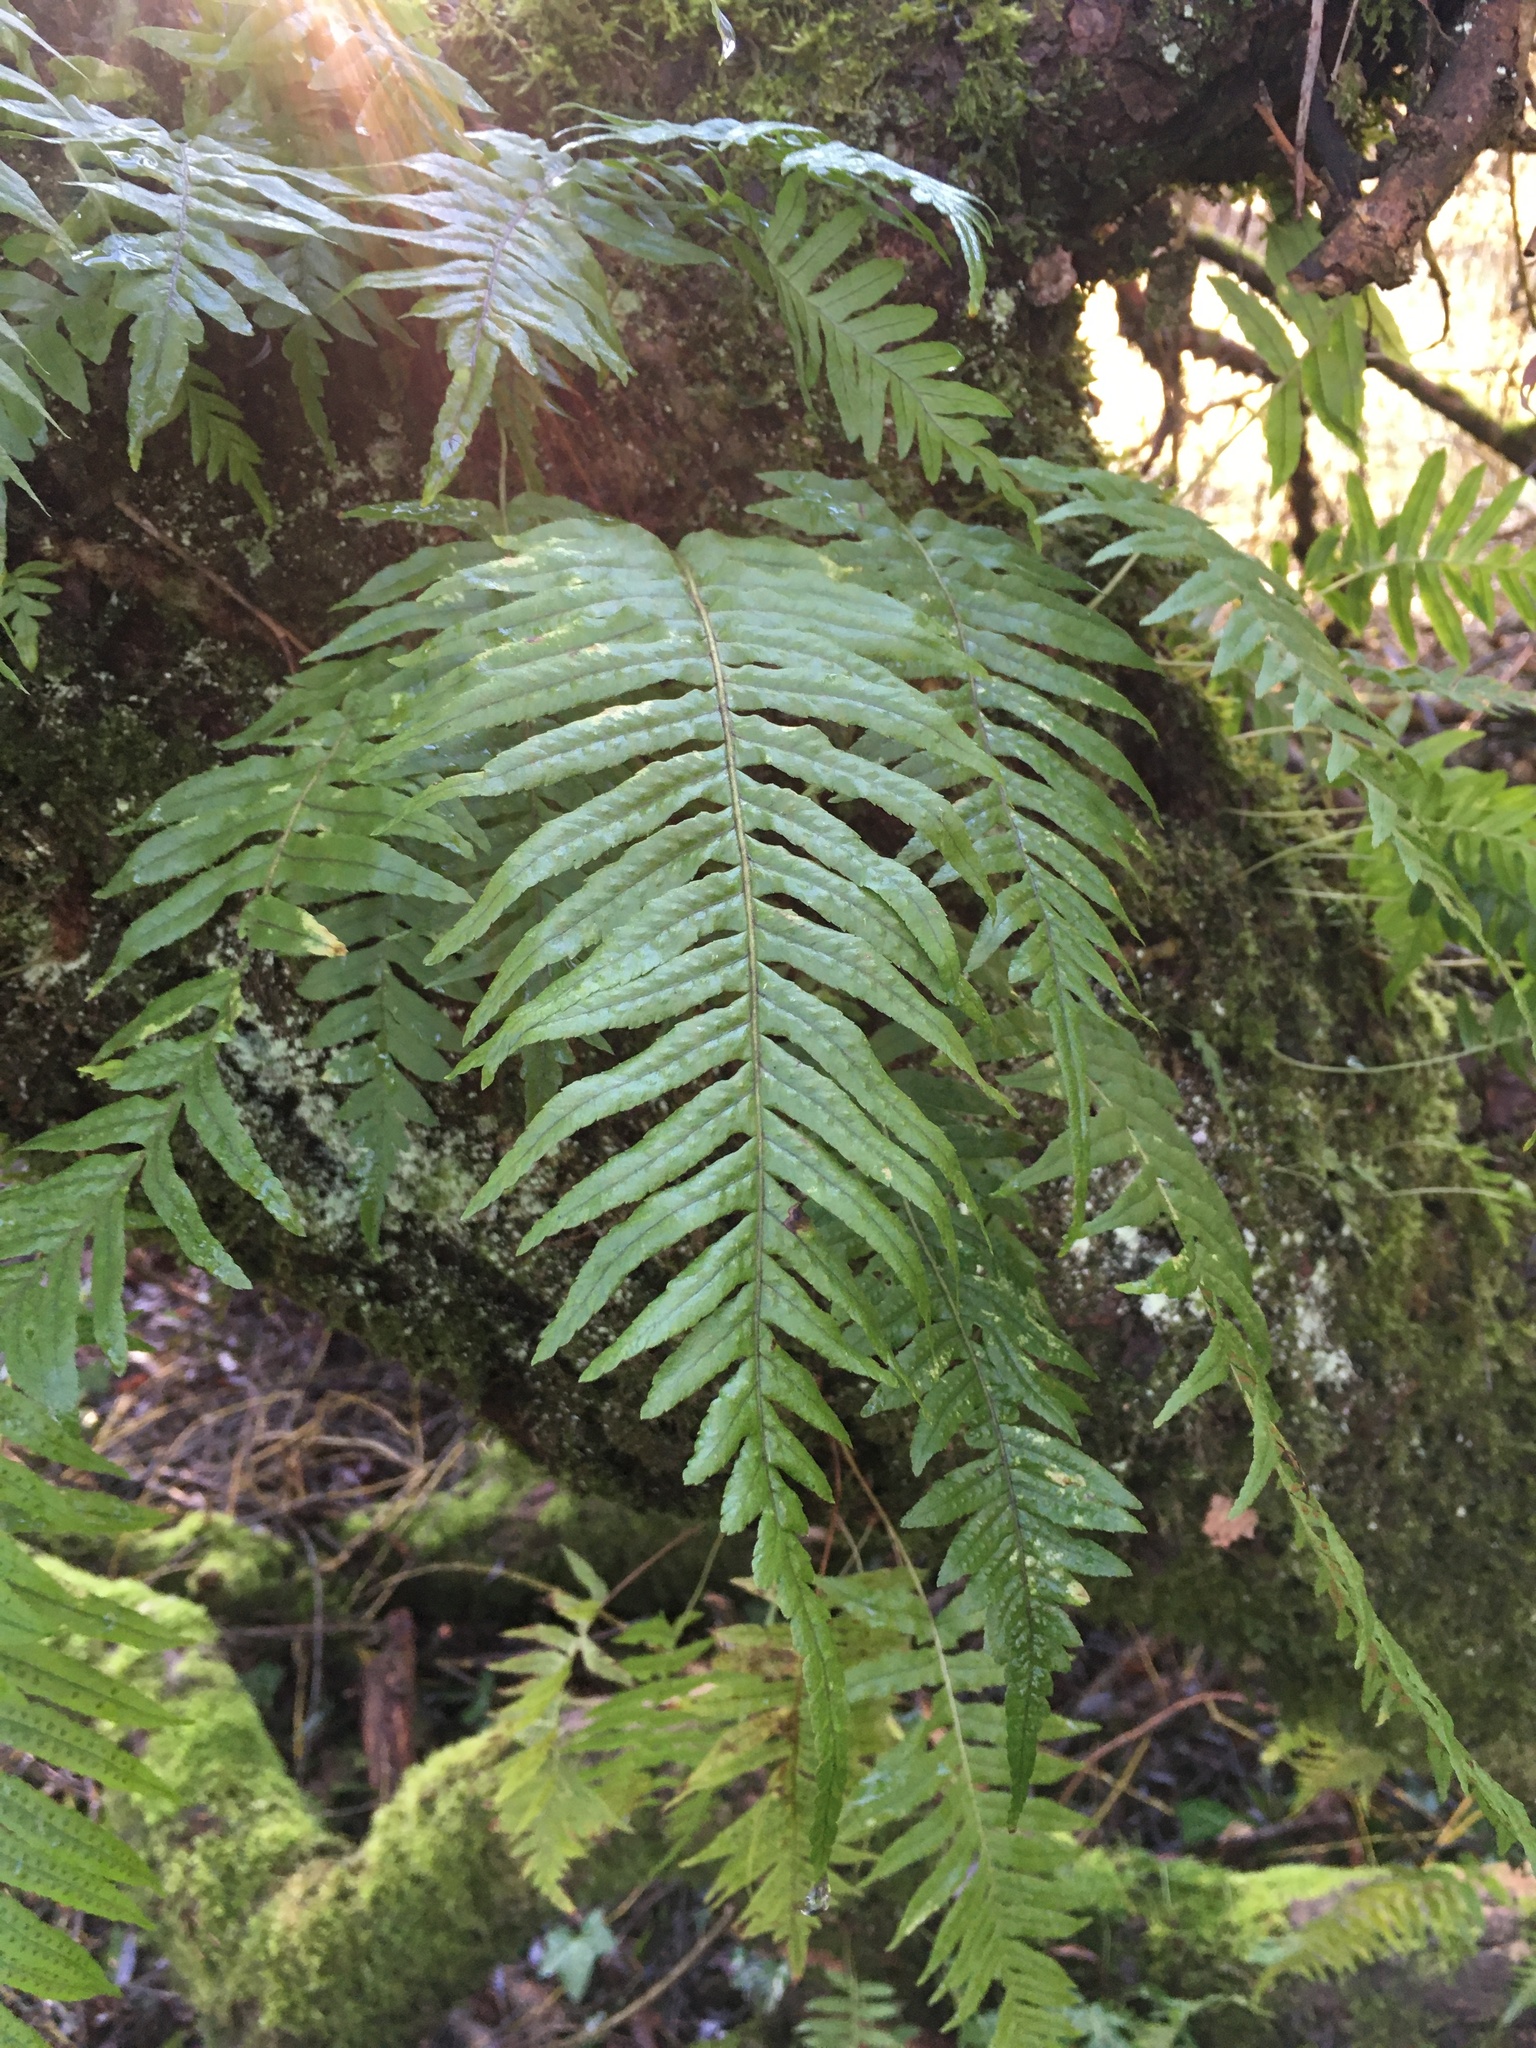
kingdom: Plantae
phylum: Tracheophyta
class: Polypodiopsida
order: Polypodiales
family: Polypodiaceae
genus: Polypodium
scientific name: Polypodium glycyrrhiza
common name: Licorice fern
